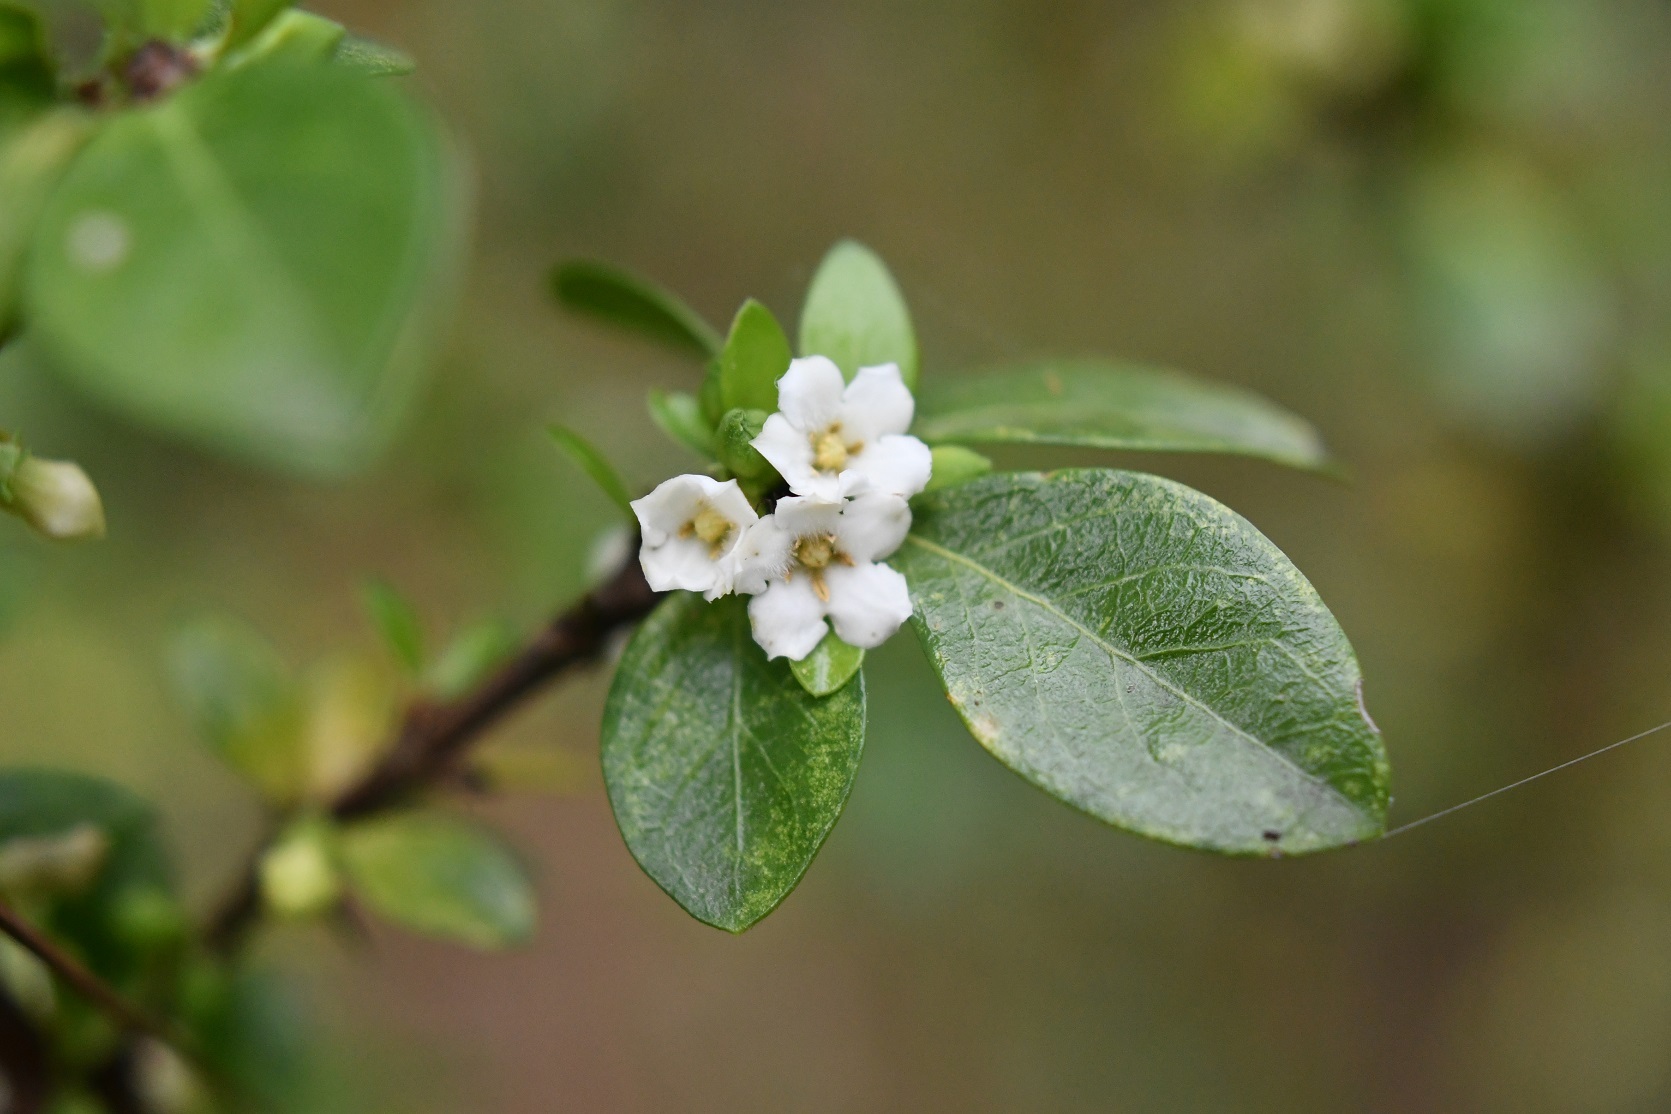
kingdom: Plantae
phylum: Tracheophyta
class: Magnoliopsida
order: Gentianales
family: Rubiaceae
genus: Randia
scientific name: Randia chiapensis
